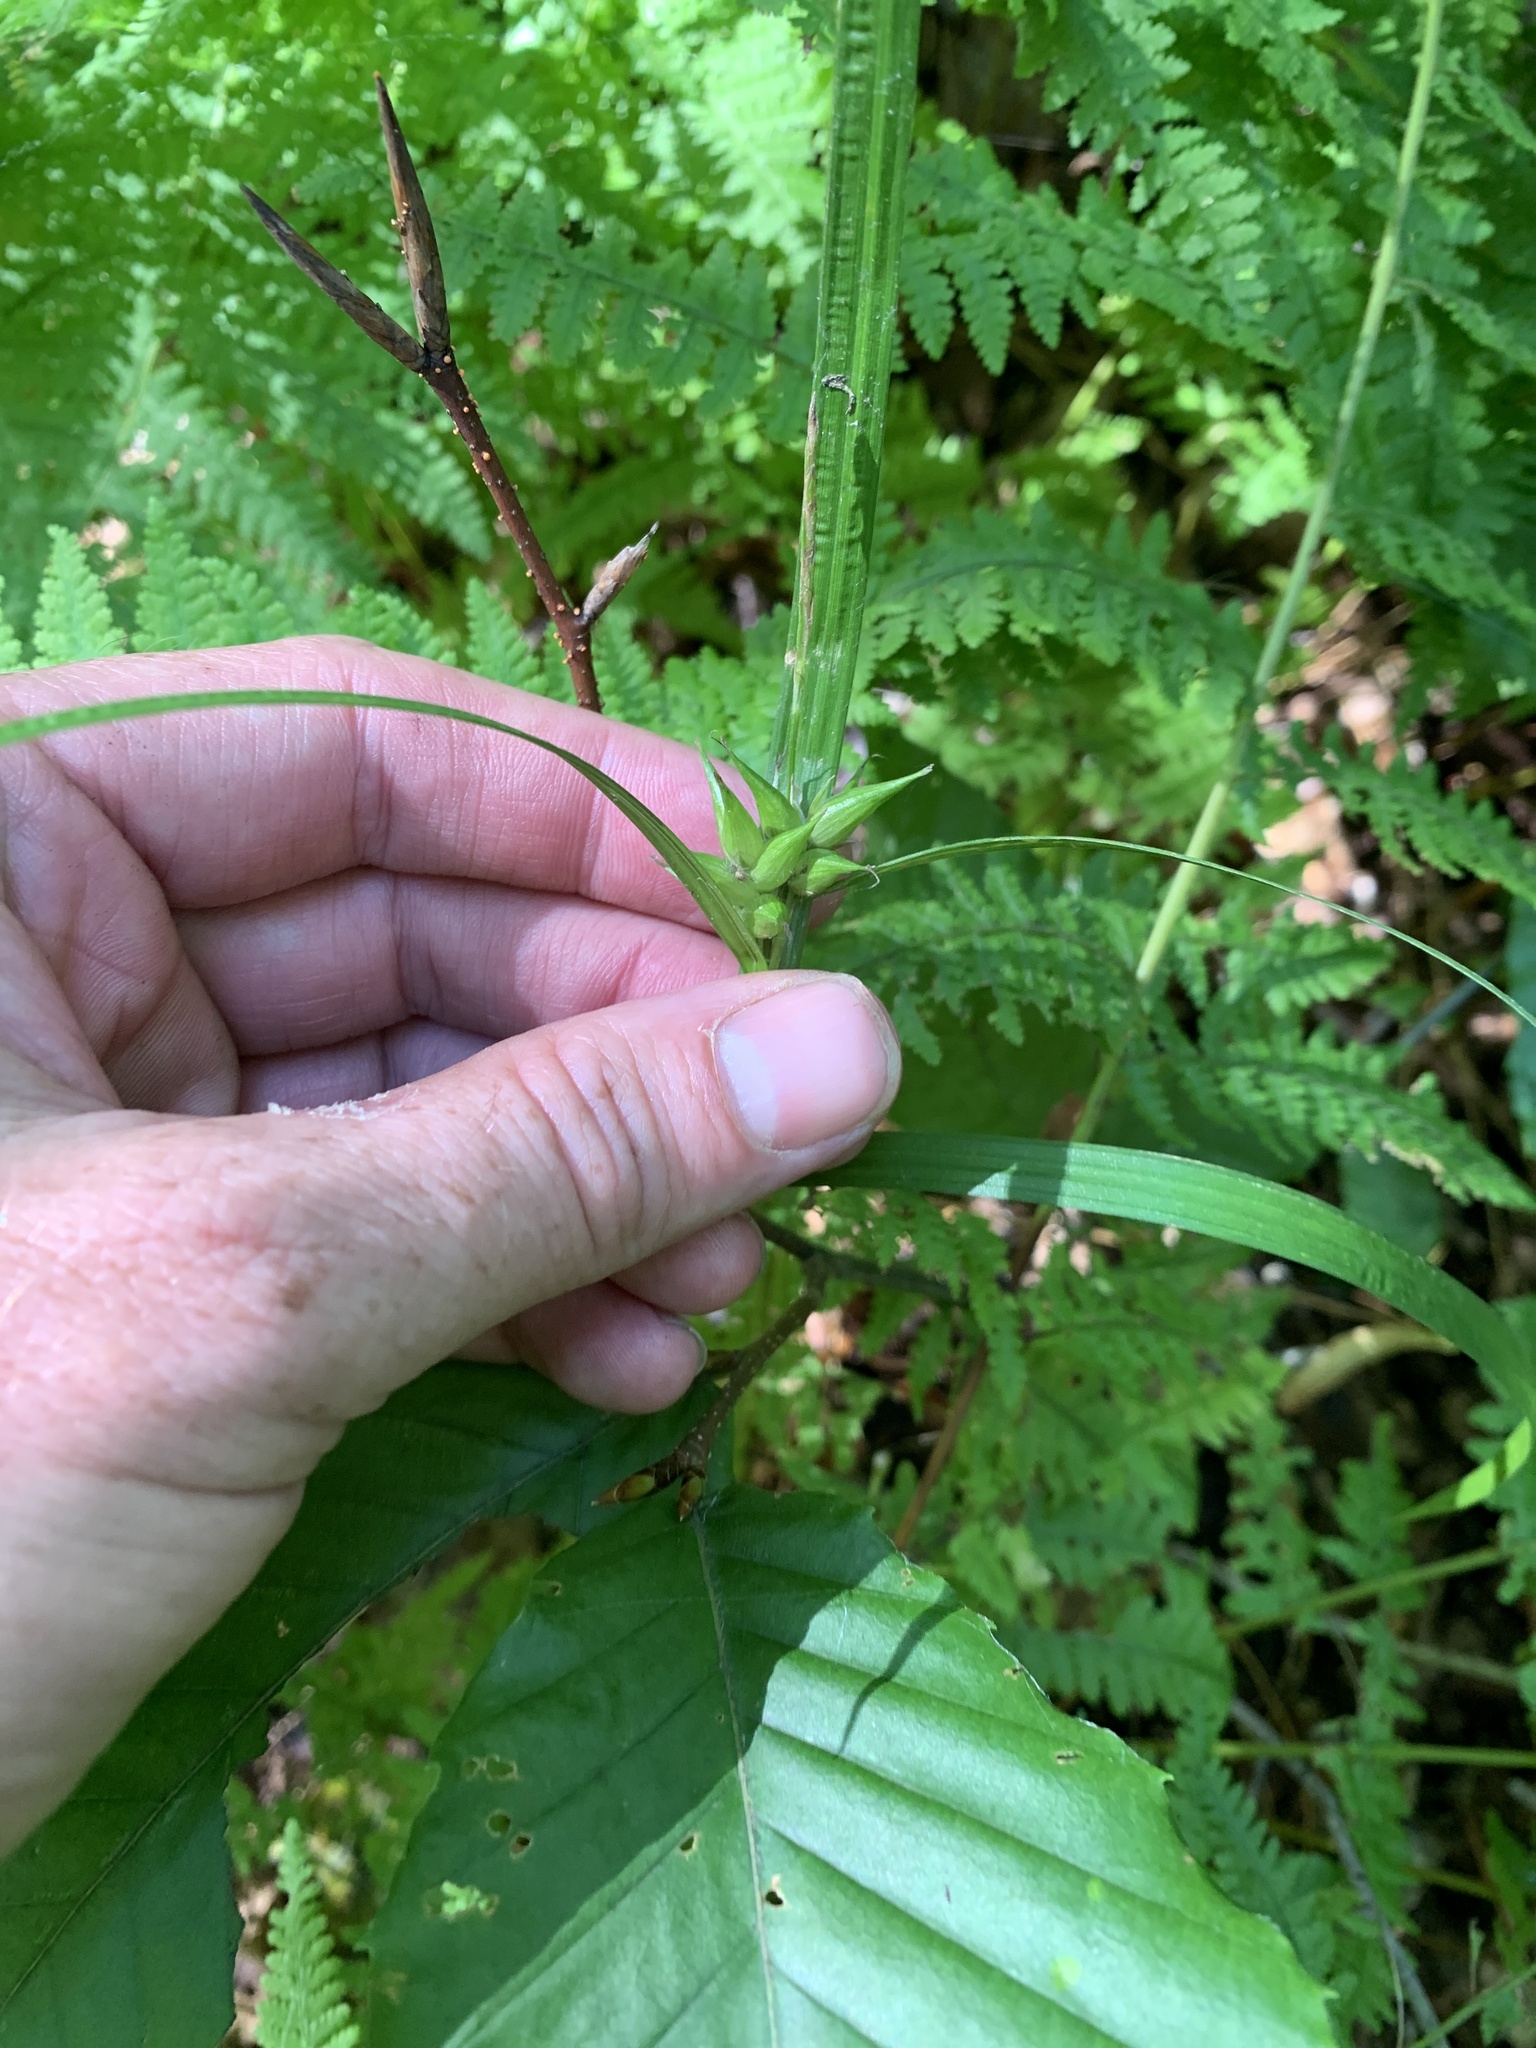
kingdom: Plantae
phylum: Tracheophyta
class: Liliopsida
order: Poales
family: Cyperaceae
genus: Carex
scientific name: Carex intumescens
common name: Greater bladder sedge
